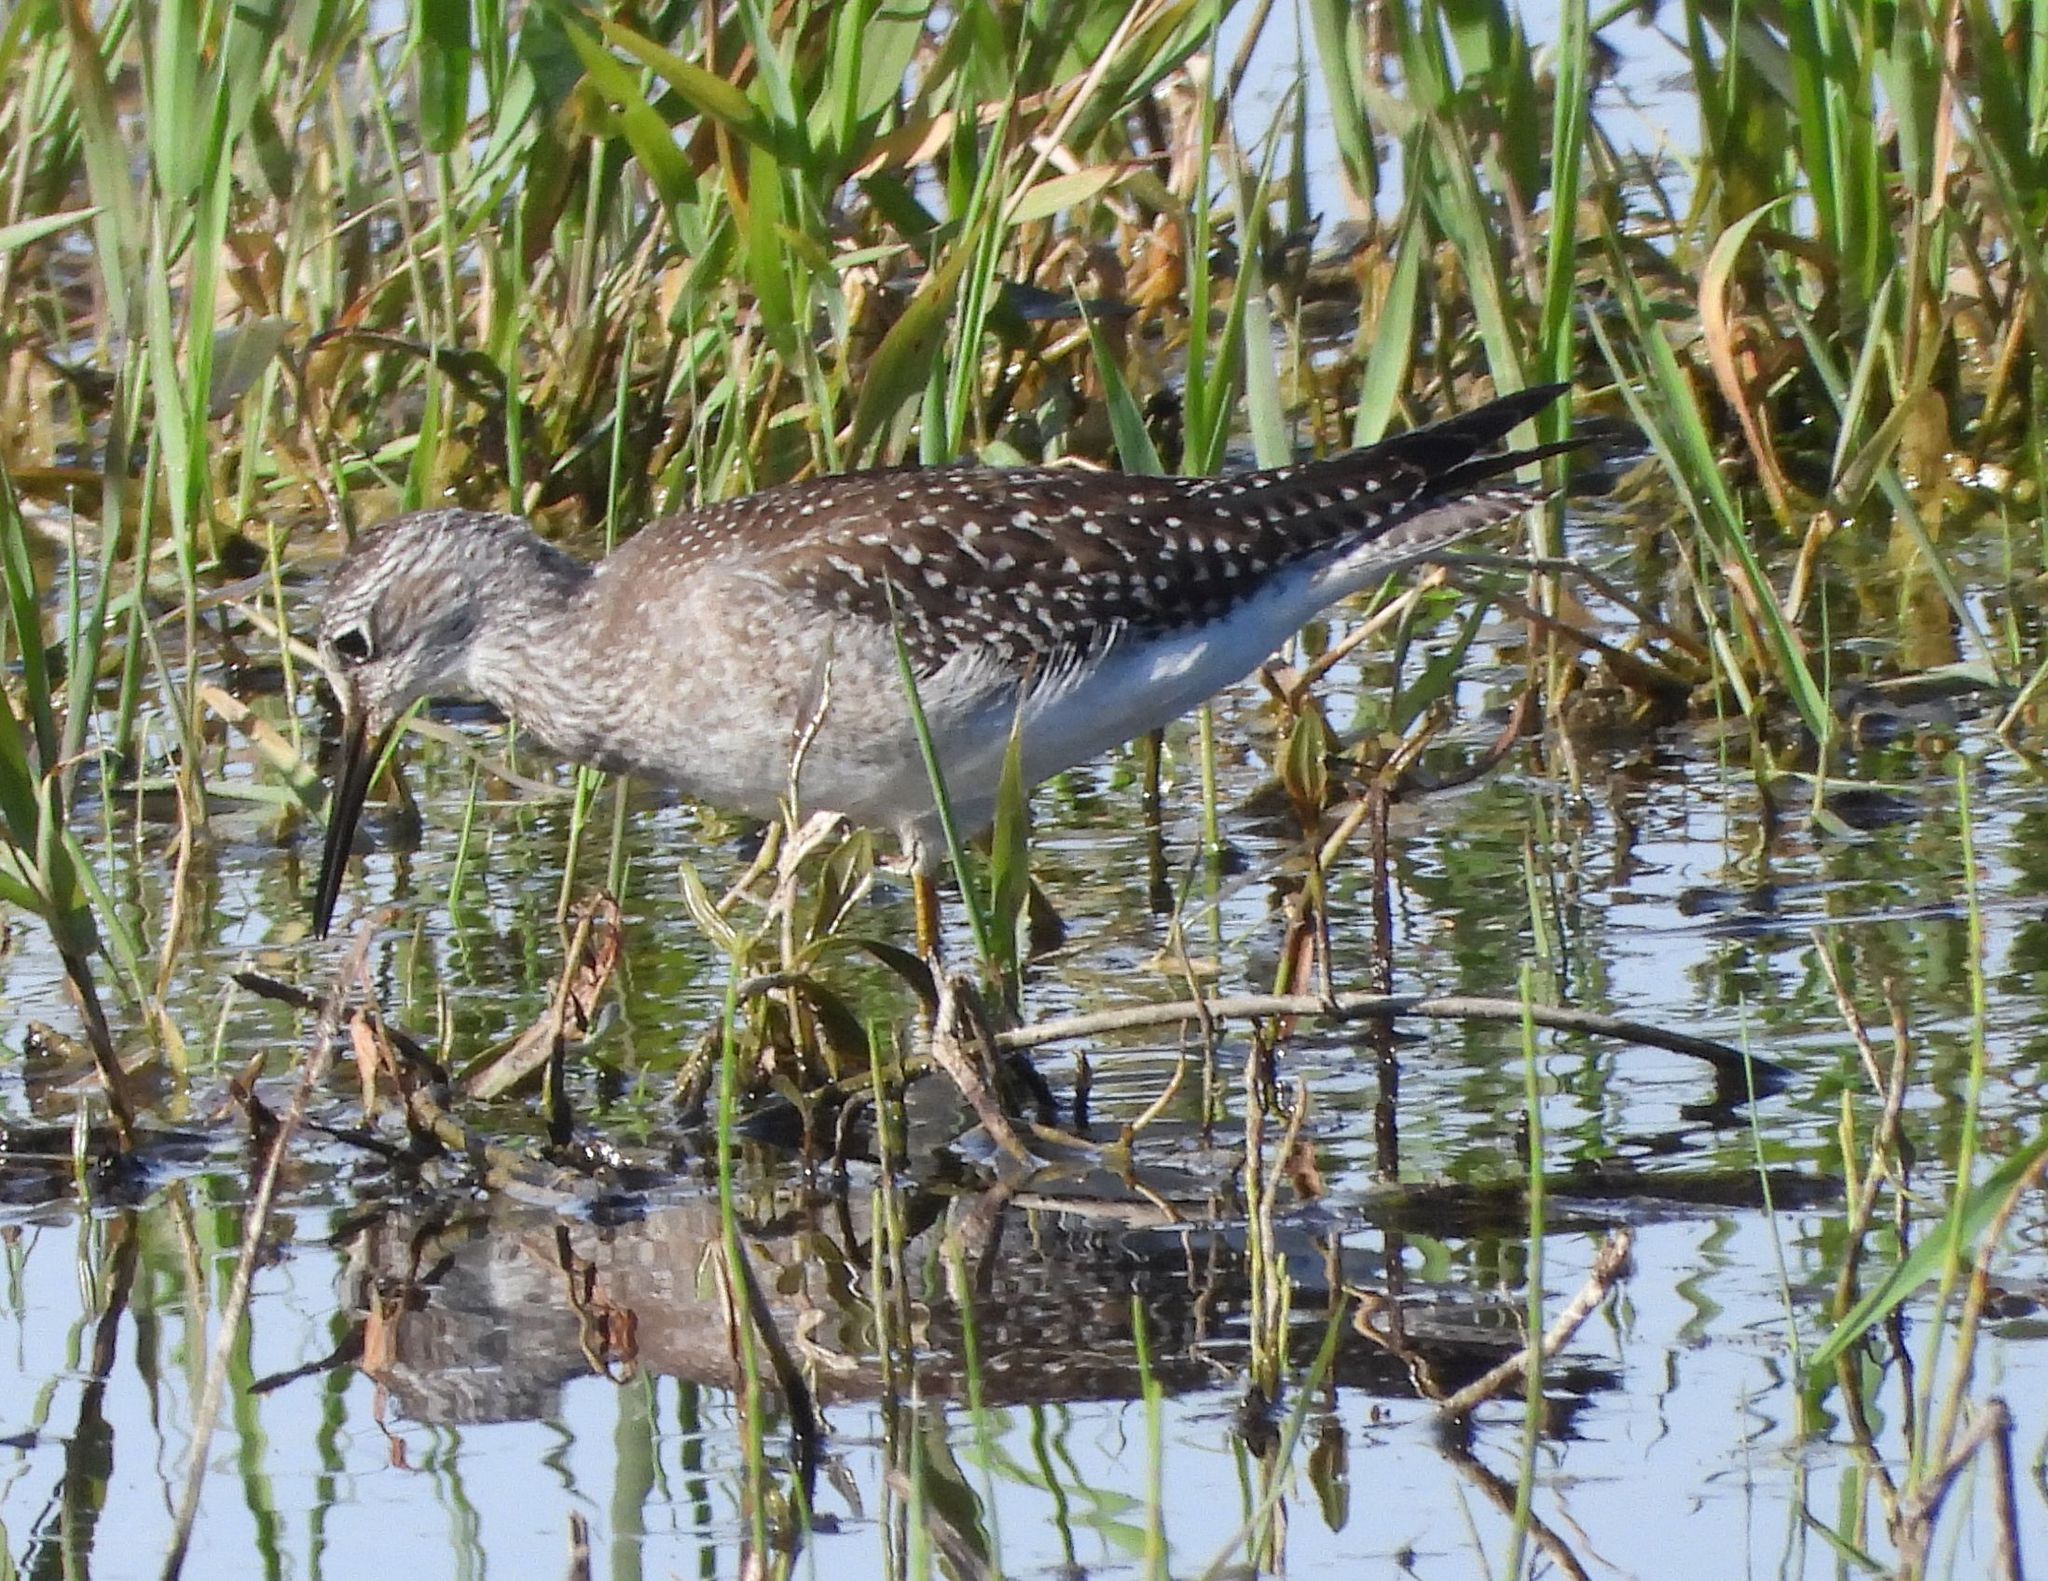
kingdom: Animalia
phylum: Chordata
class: Aves
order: Charadriiformes
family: Scolopacidae
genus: Tringa
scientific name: Tringa flavipes
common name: Lesser yellowlegs
